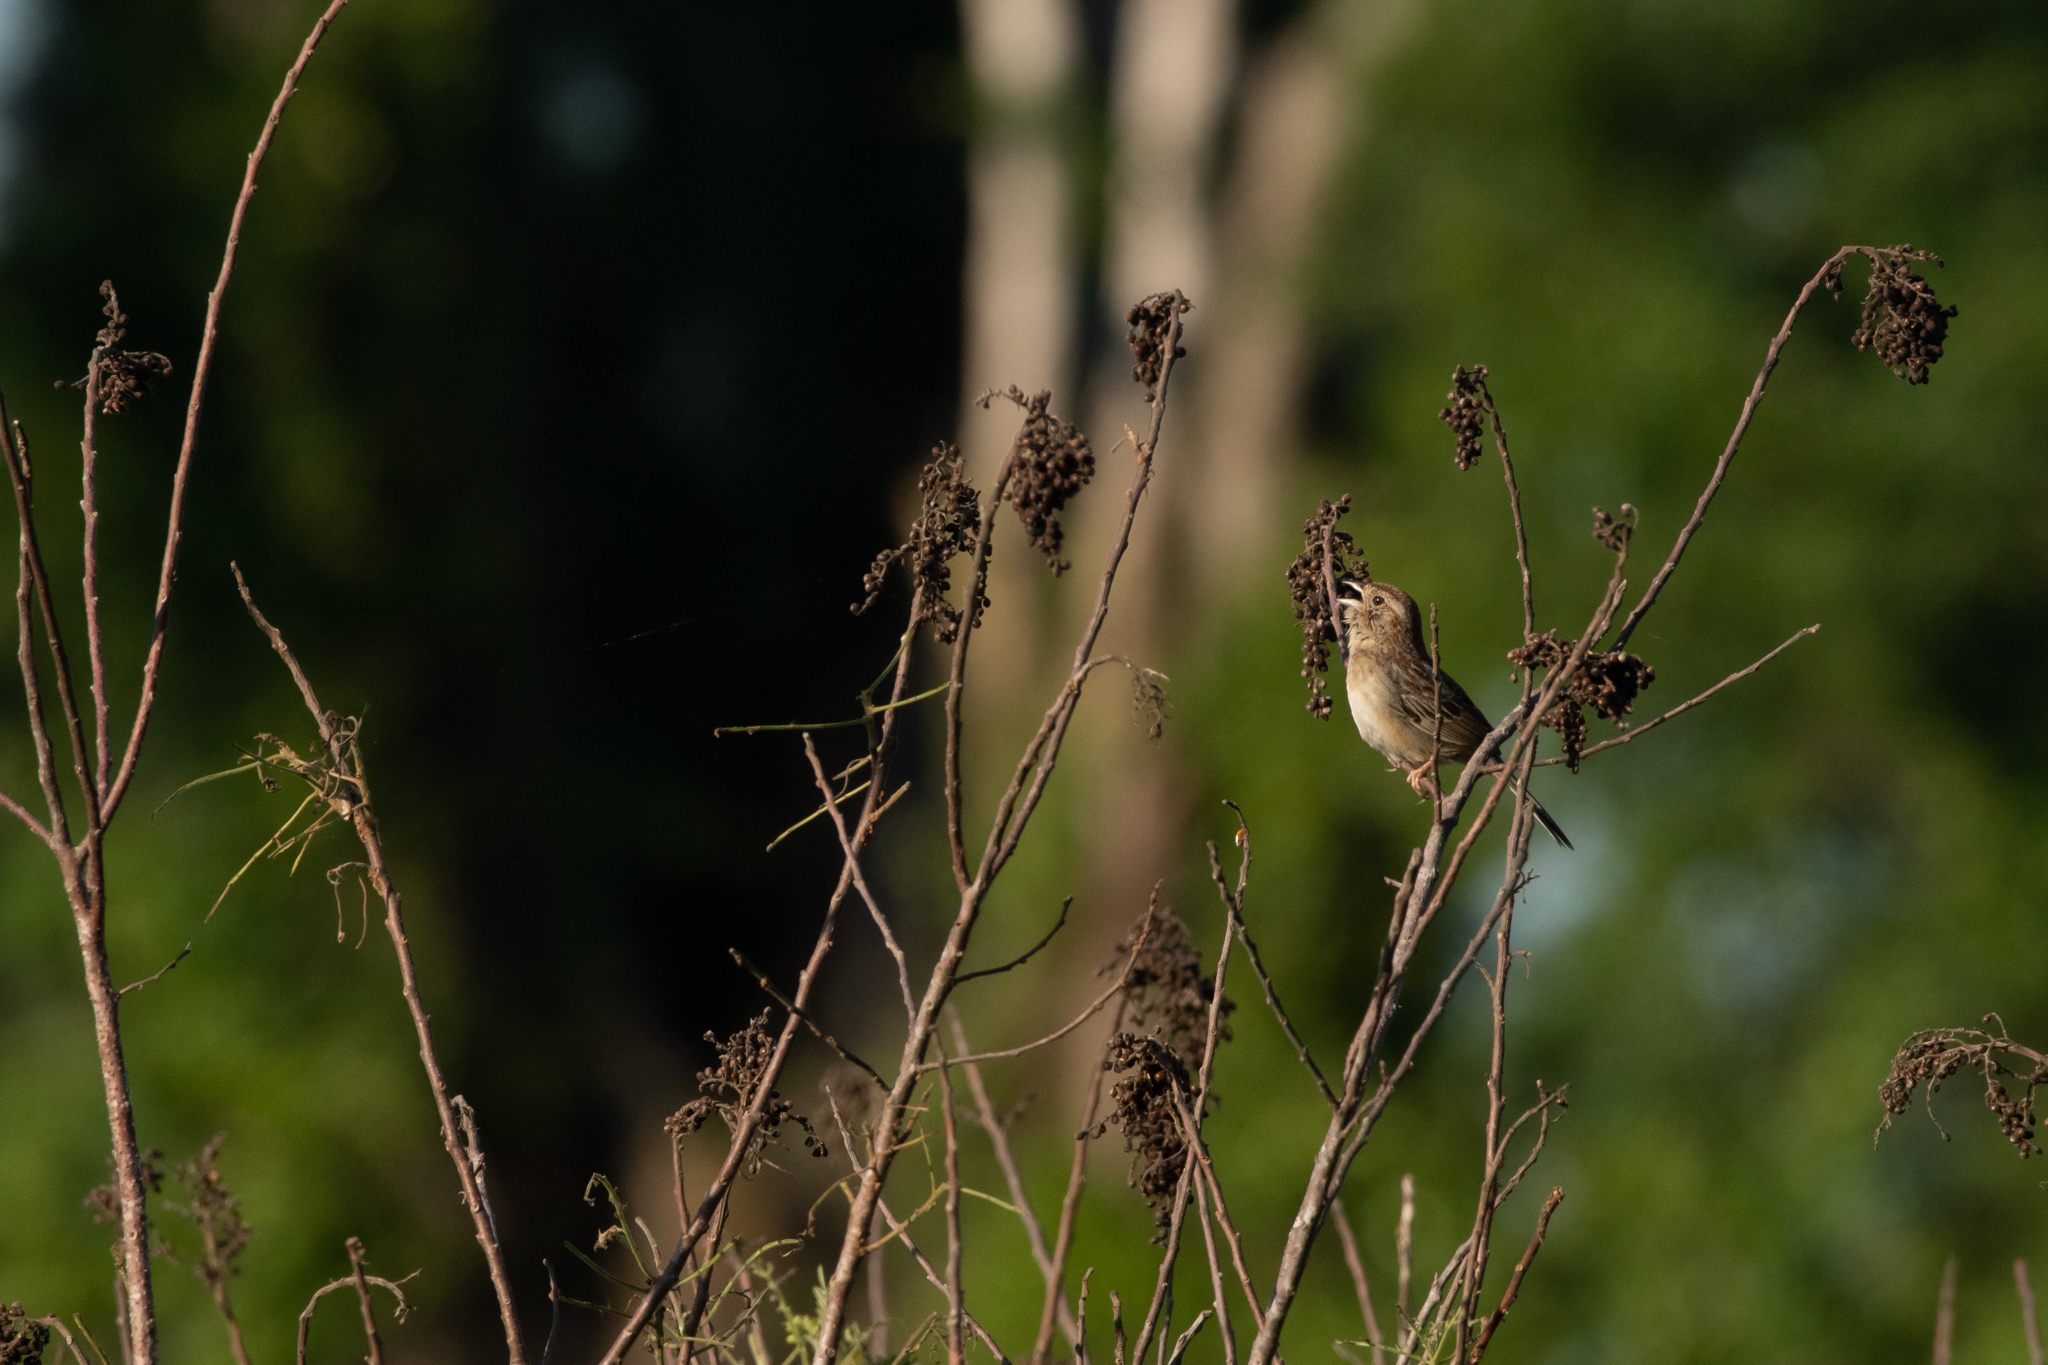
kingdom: Animalia
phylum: Chordata
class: Aves
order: Passeriformes
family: Passerellidae
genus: Peucaea
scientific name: Peucaea aestivalis
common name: Bachman's sparrow
